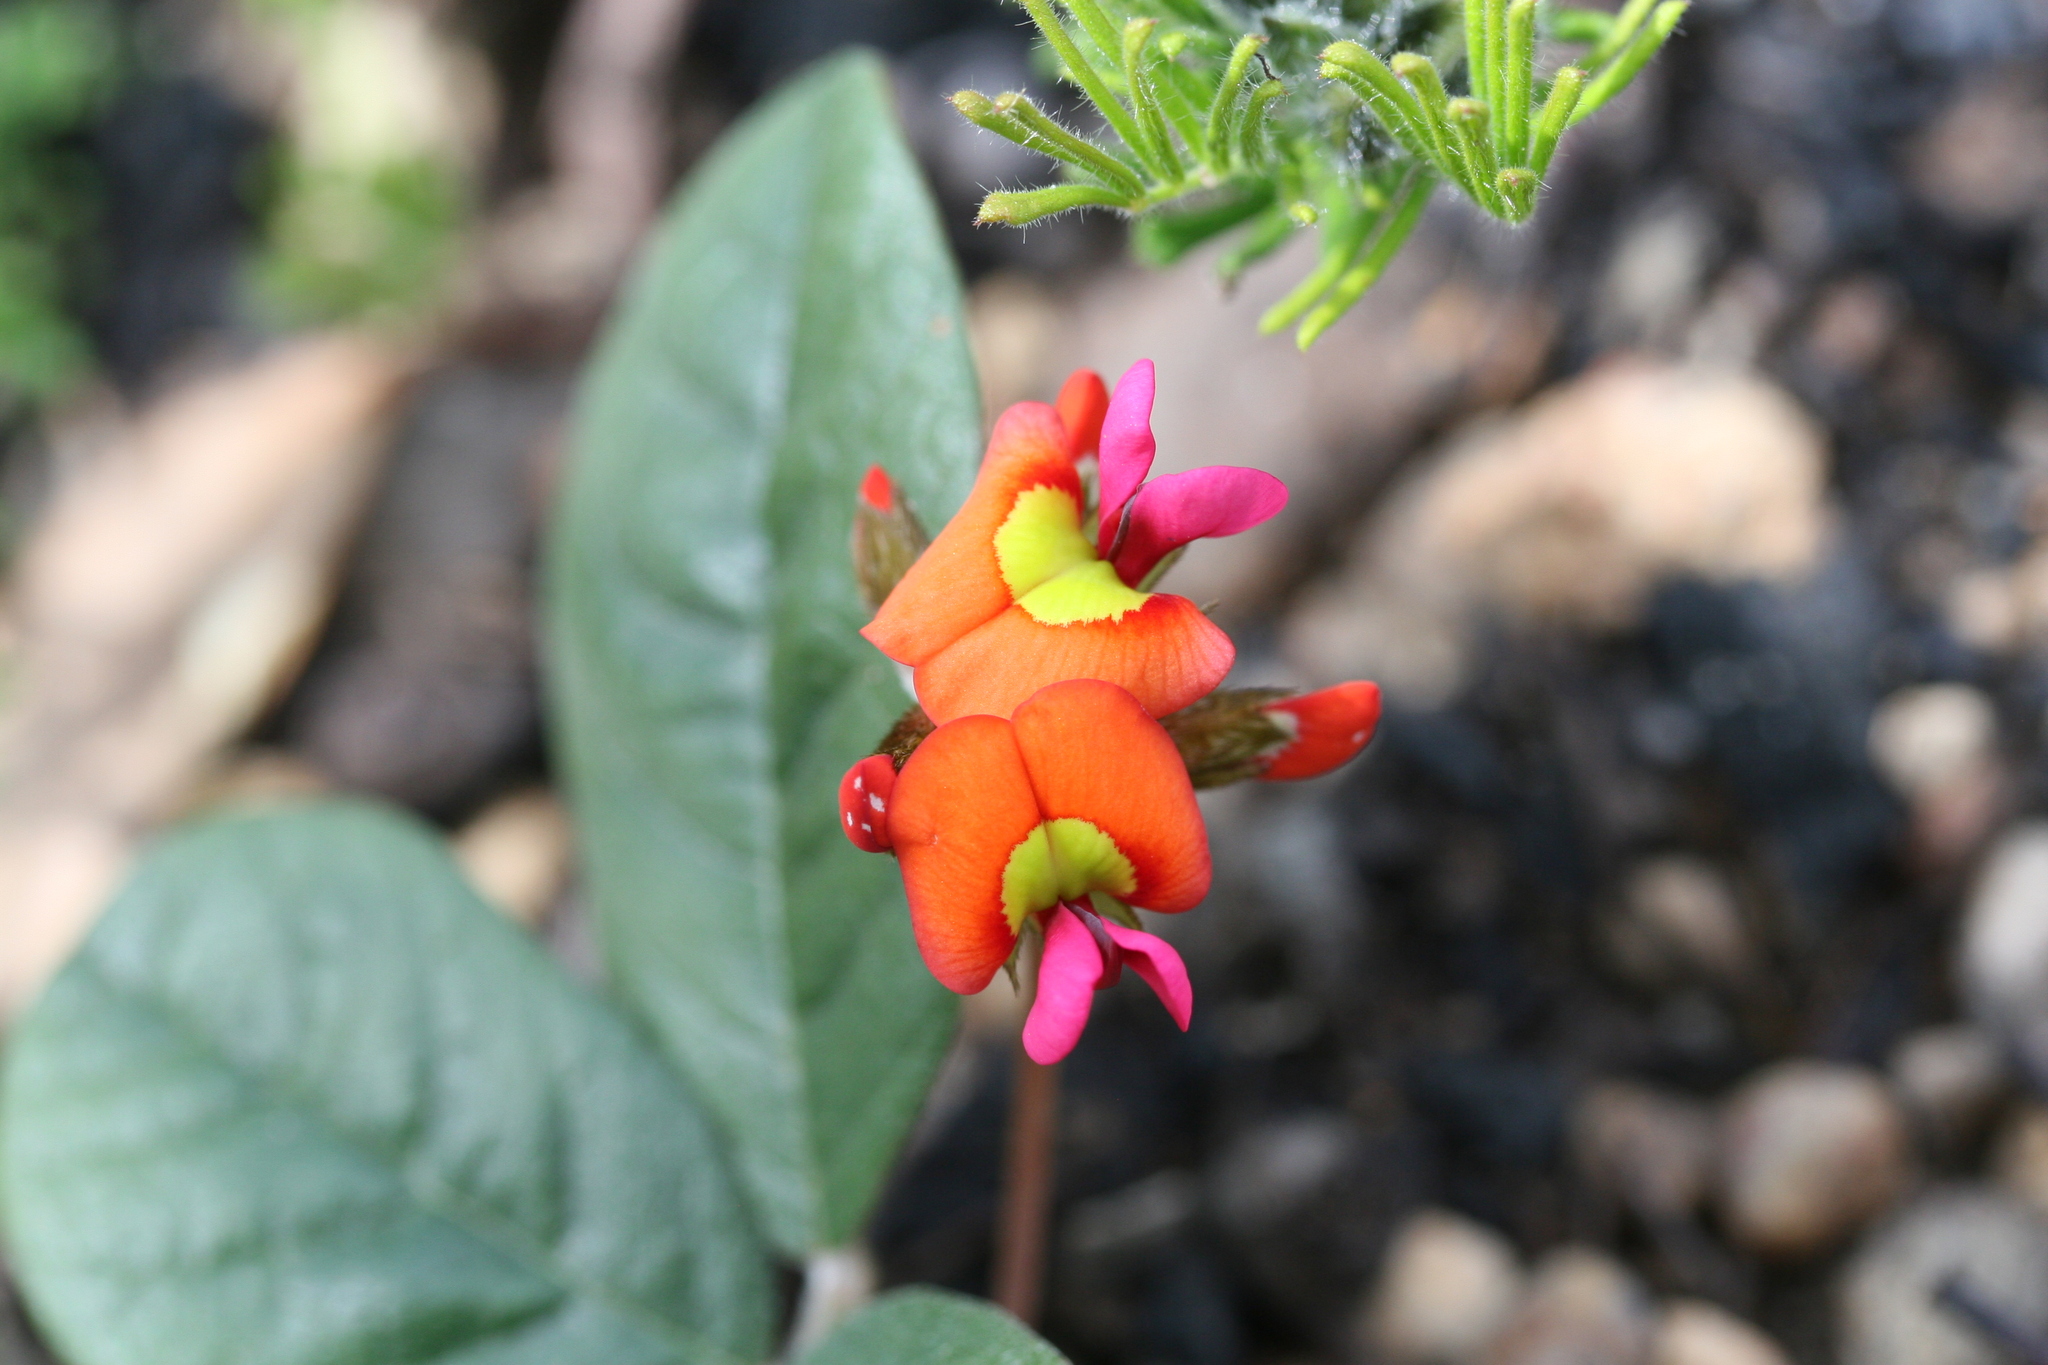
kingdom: Plantae
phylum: Tracheophyta
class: Magnoliopsida
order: Fabales
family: Fabaceae
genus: Kennedia
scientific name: Kennedia coccinea
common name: Coralvine
